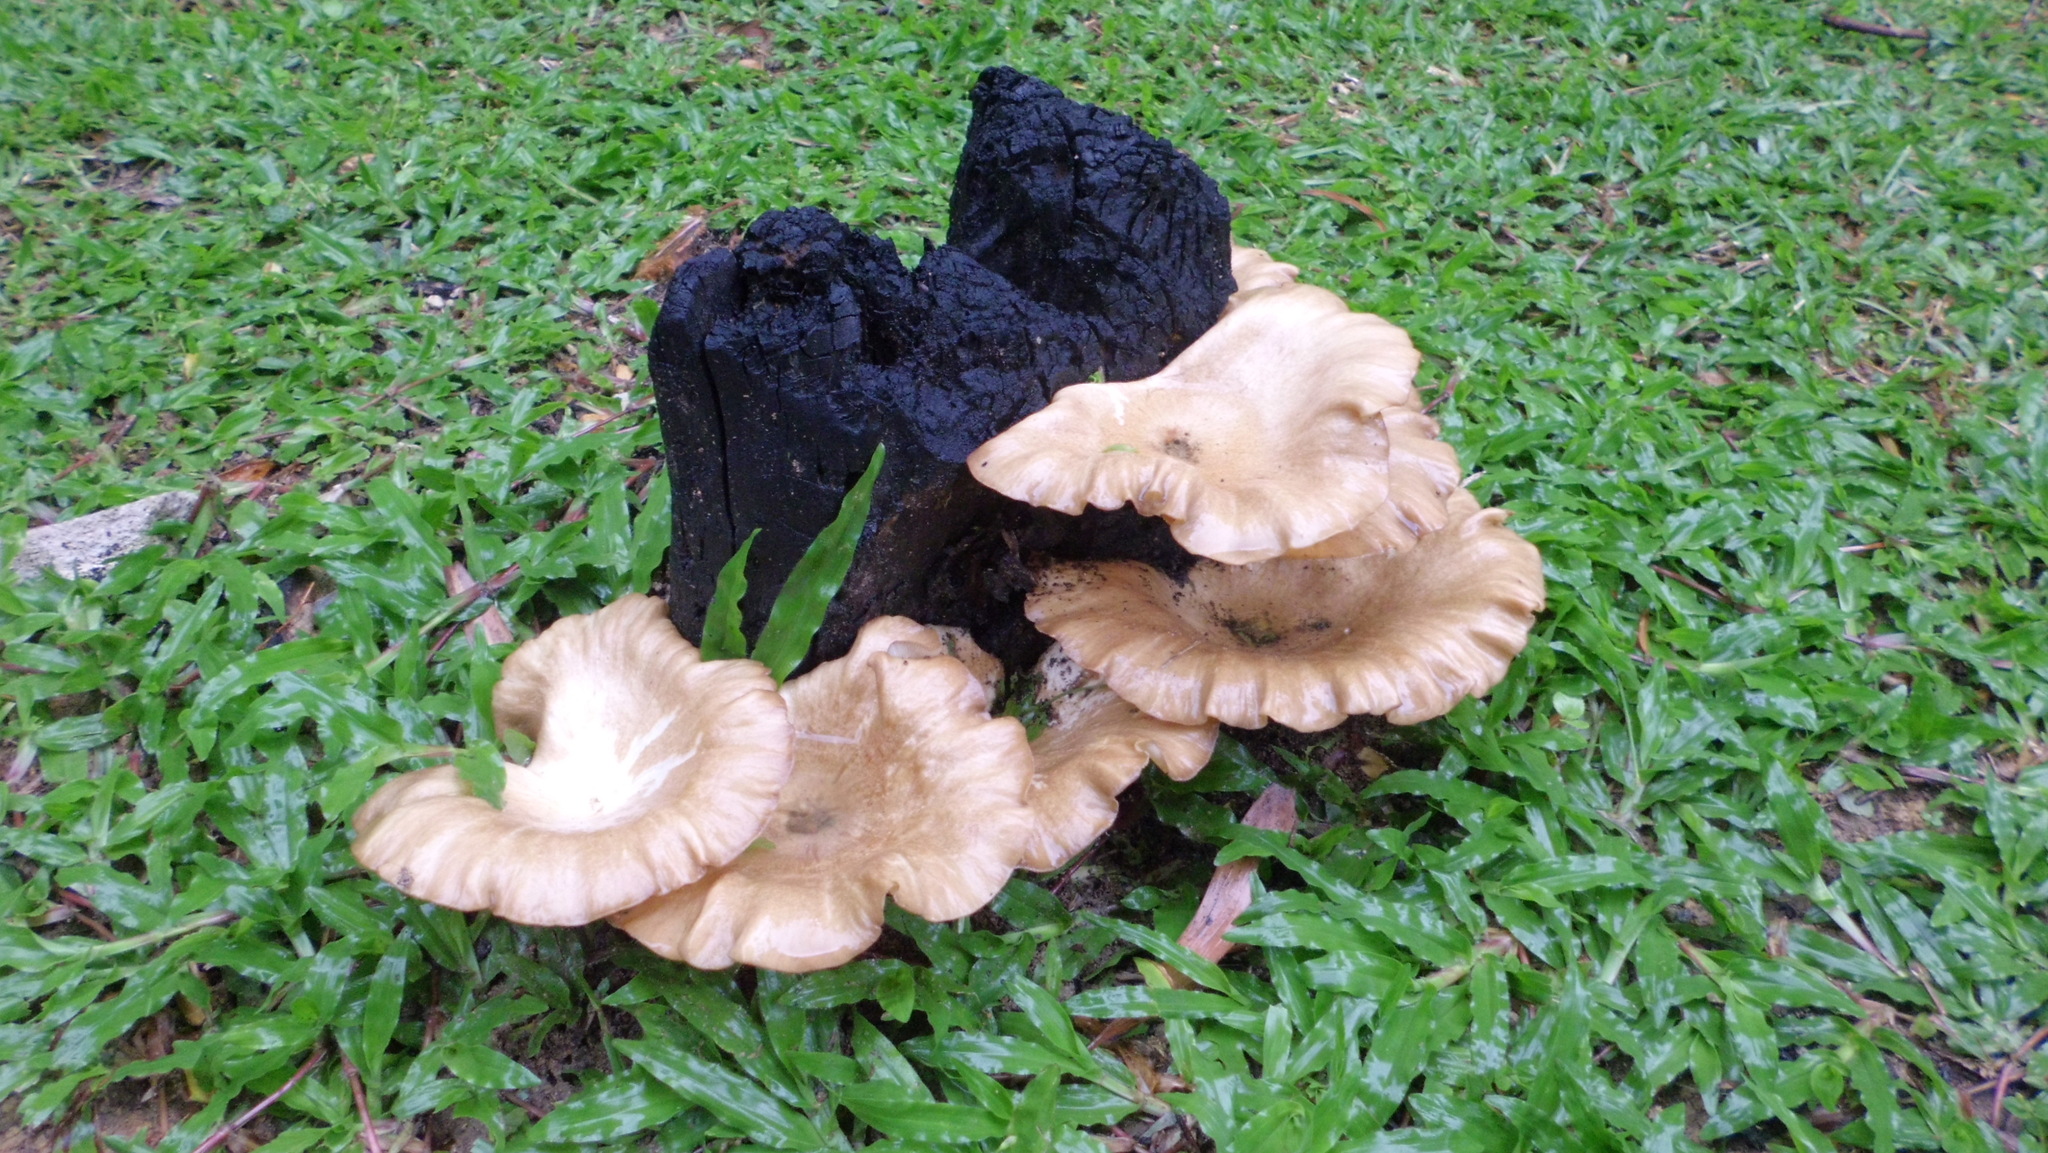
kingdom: Fungi
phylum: Basidiomycota
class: Agaricomycetes
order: Polyporales
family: Polyporaceae
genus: Lentinus
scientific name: Lentinus sajor-caju
